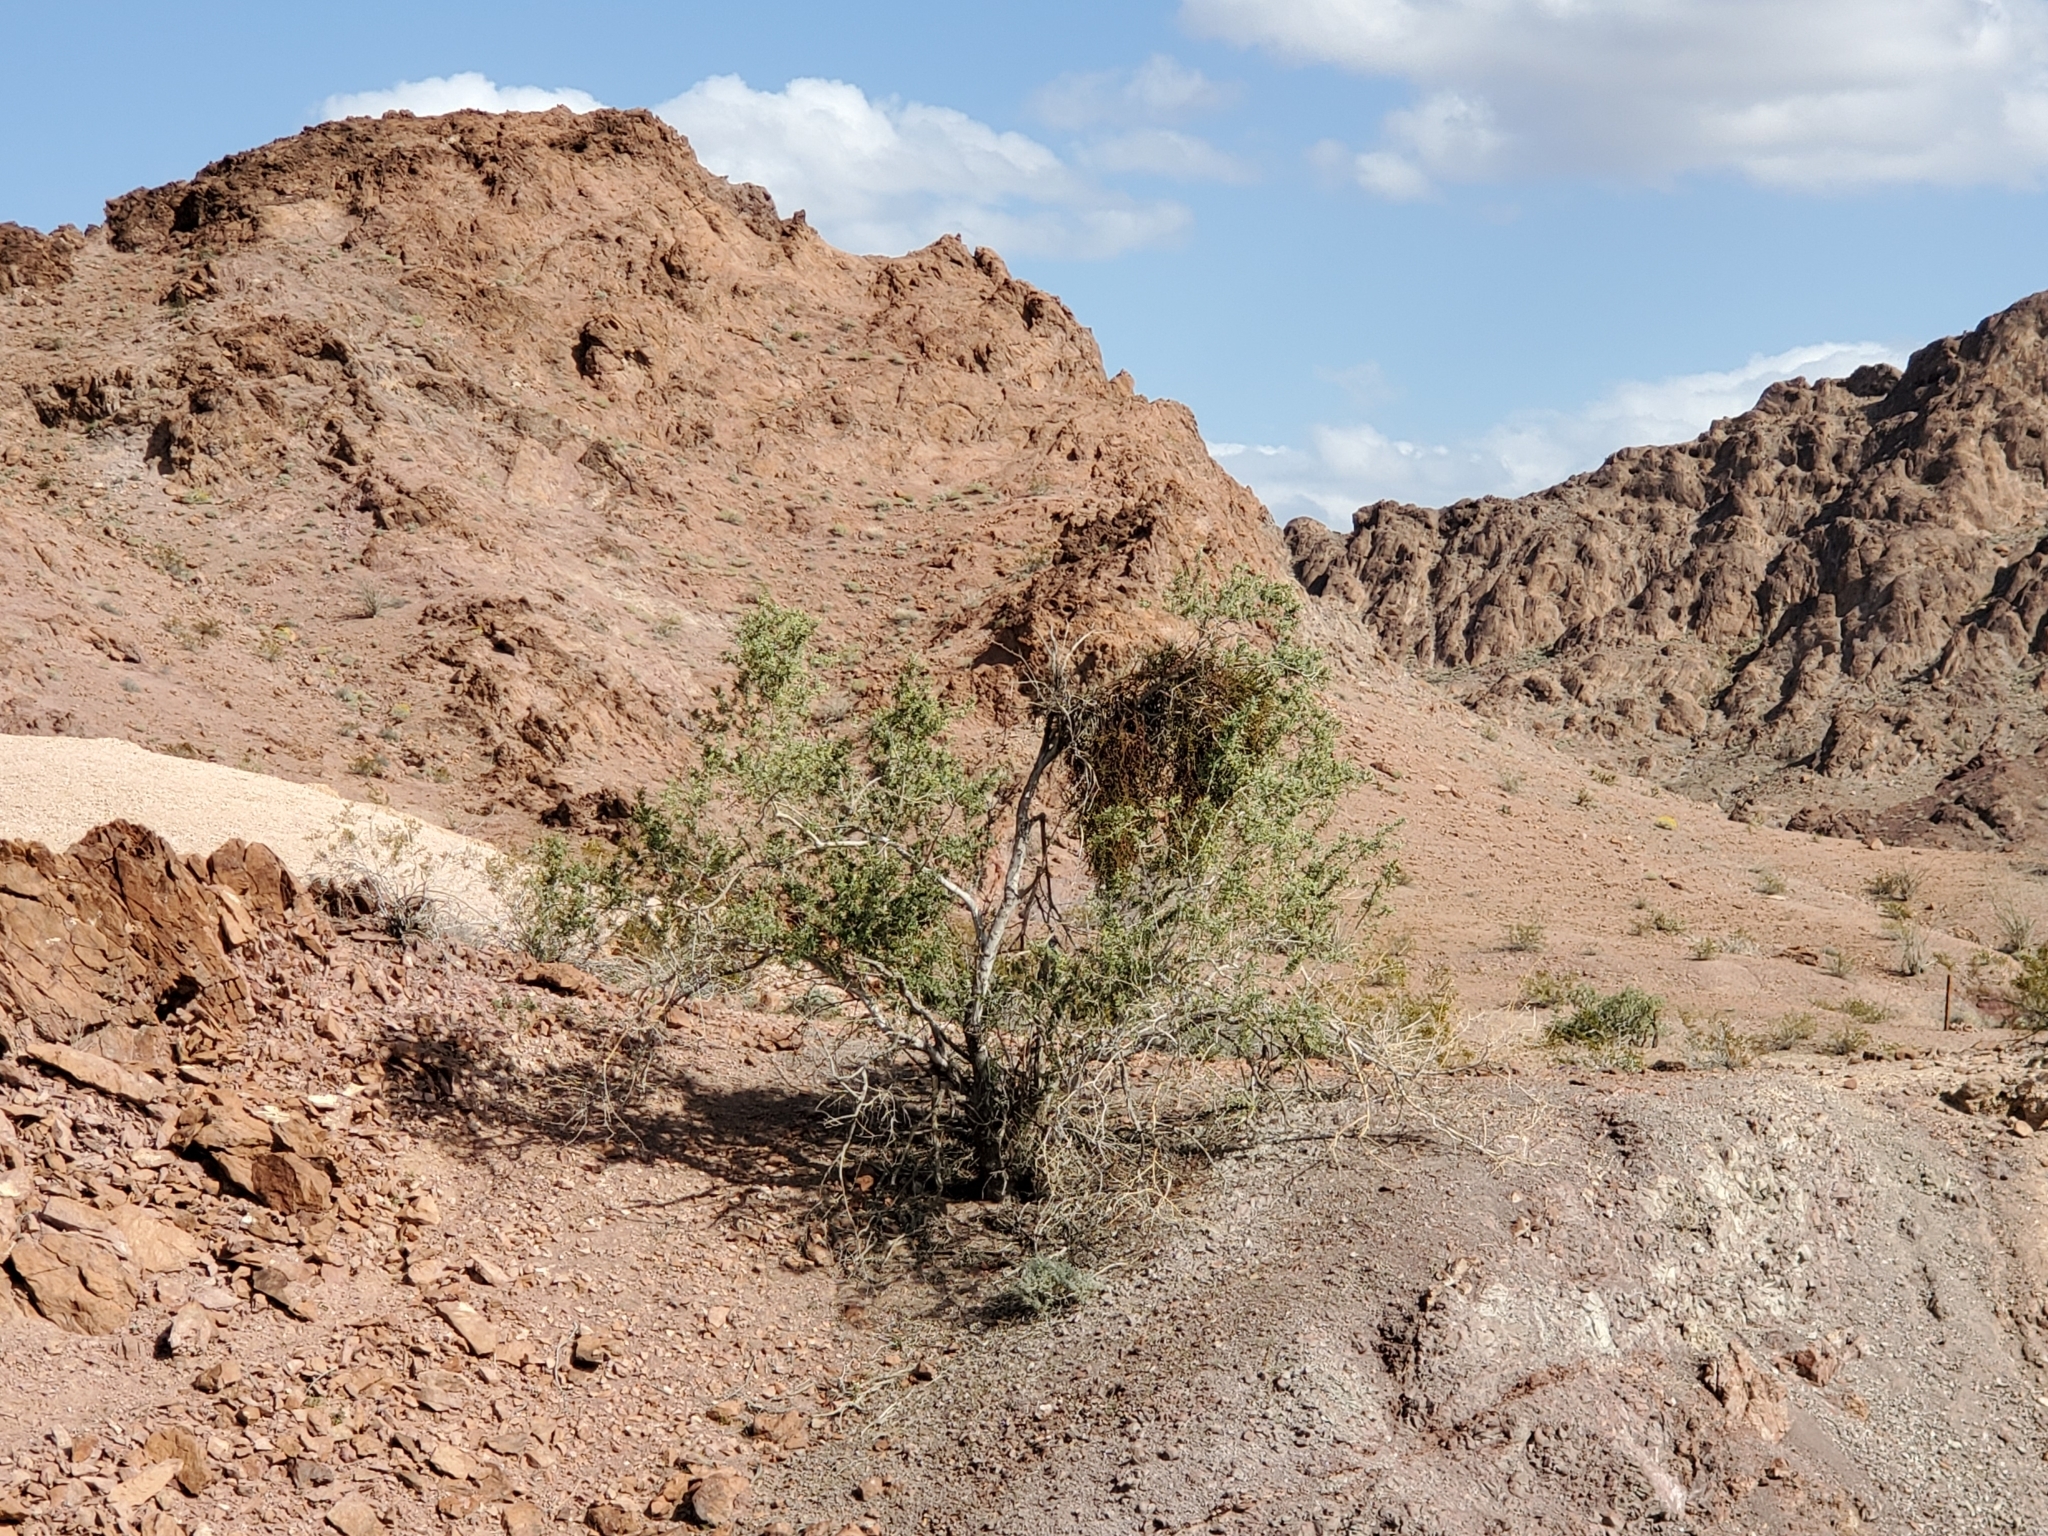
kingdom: Plantae
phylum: Tracheophyta
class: Magnoliopsida
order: Santalales
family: Viscaceae
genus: Phoradendron
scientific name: Phoradendron californicum
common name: Acacia mistletoe
